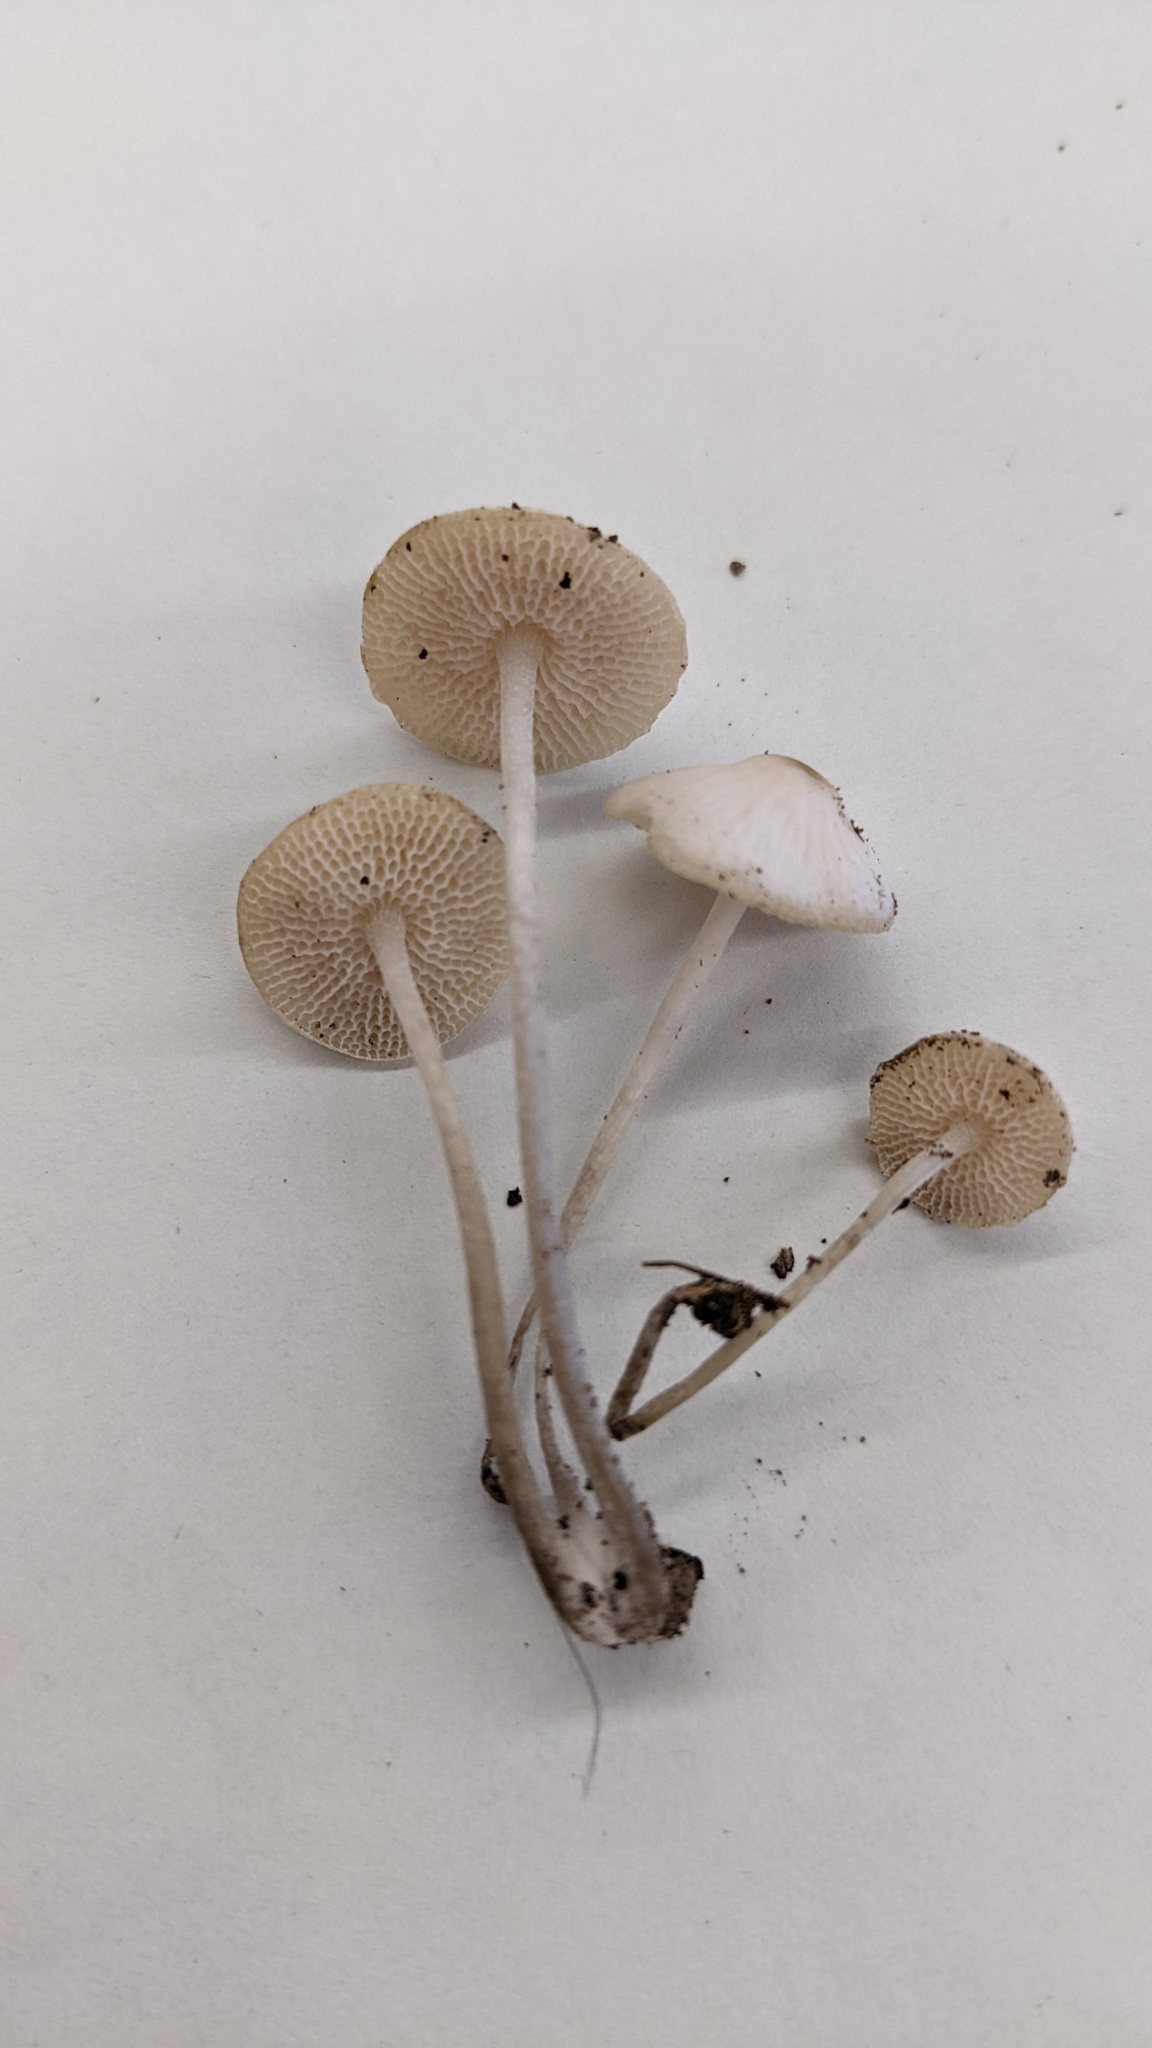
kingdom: Fungi
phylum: Basidiomycota
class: Agaricomycetes
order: Agaricales
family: Mycenaceae
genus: Filoboletus
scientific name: Filoboletus manipularis
